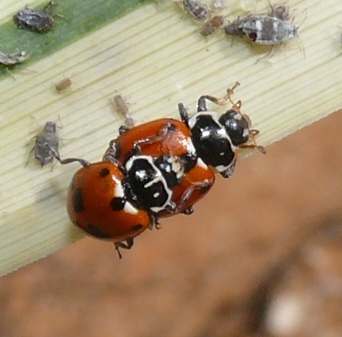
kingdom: Animalia
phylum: Arthropoda
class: Insecta
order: Coleoptera
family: Coccinellidae
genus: Hippodamia
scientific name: Hippodamia variegata
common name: Ladybird beetle
